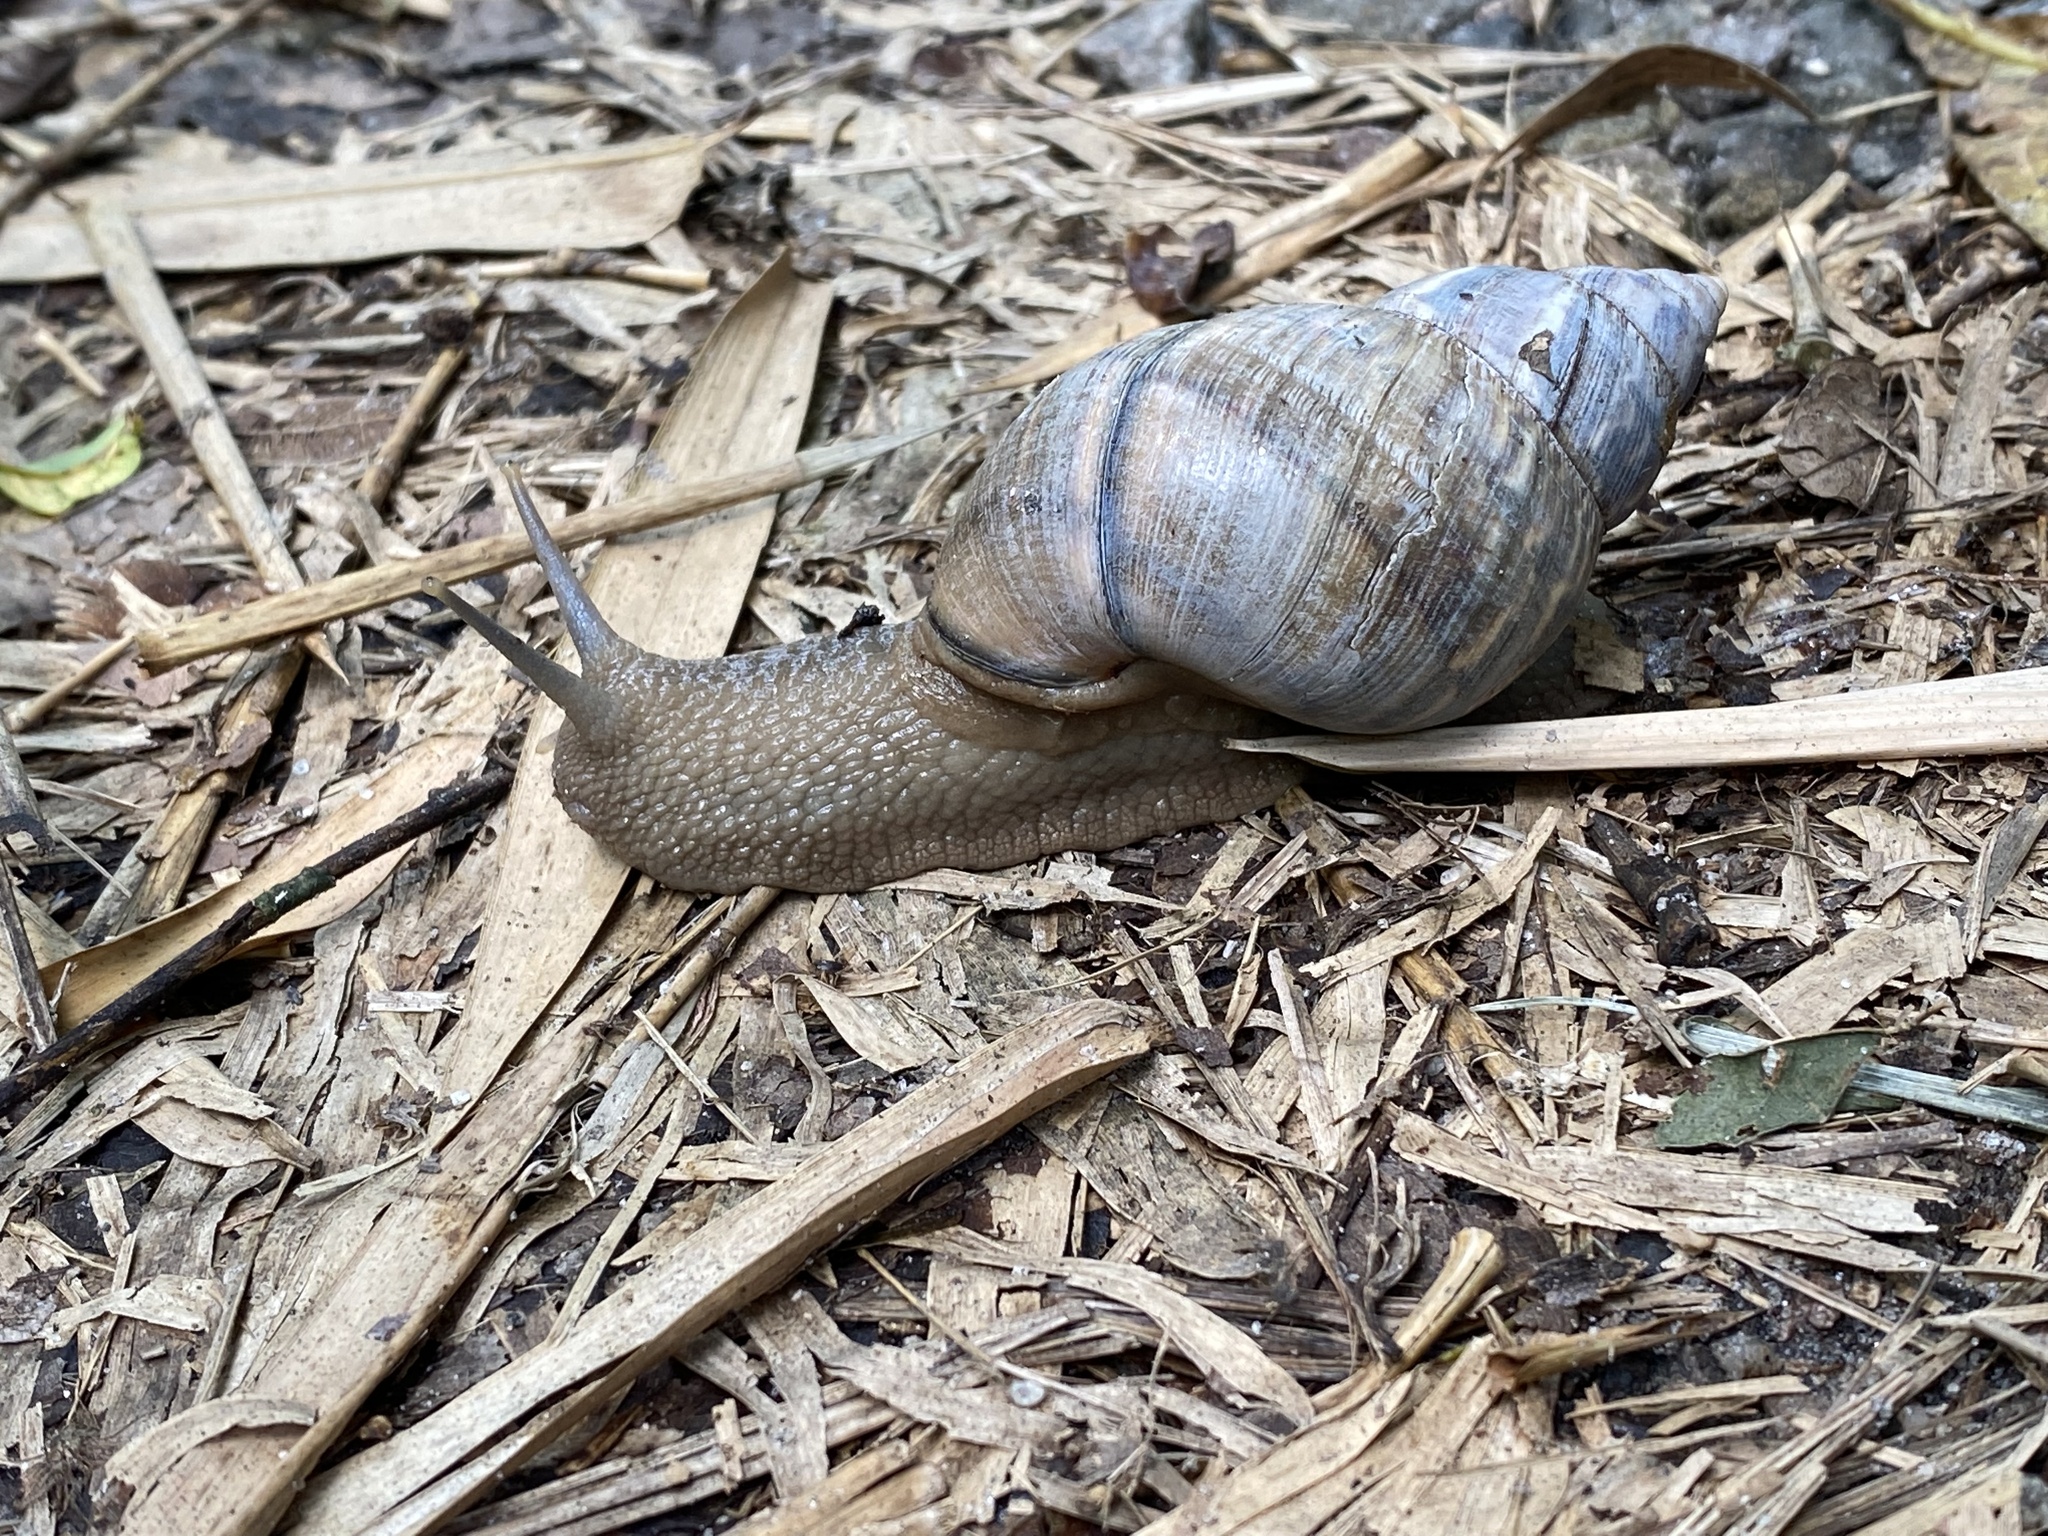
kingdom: Animalia
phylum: Mollusca
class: Gastropoda
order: Stylommatophora
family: Orthalicidae
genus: Orthalicus
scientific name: Orthalicus princeps
